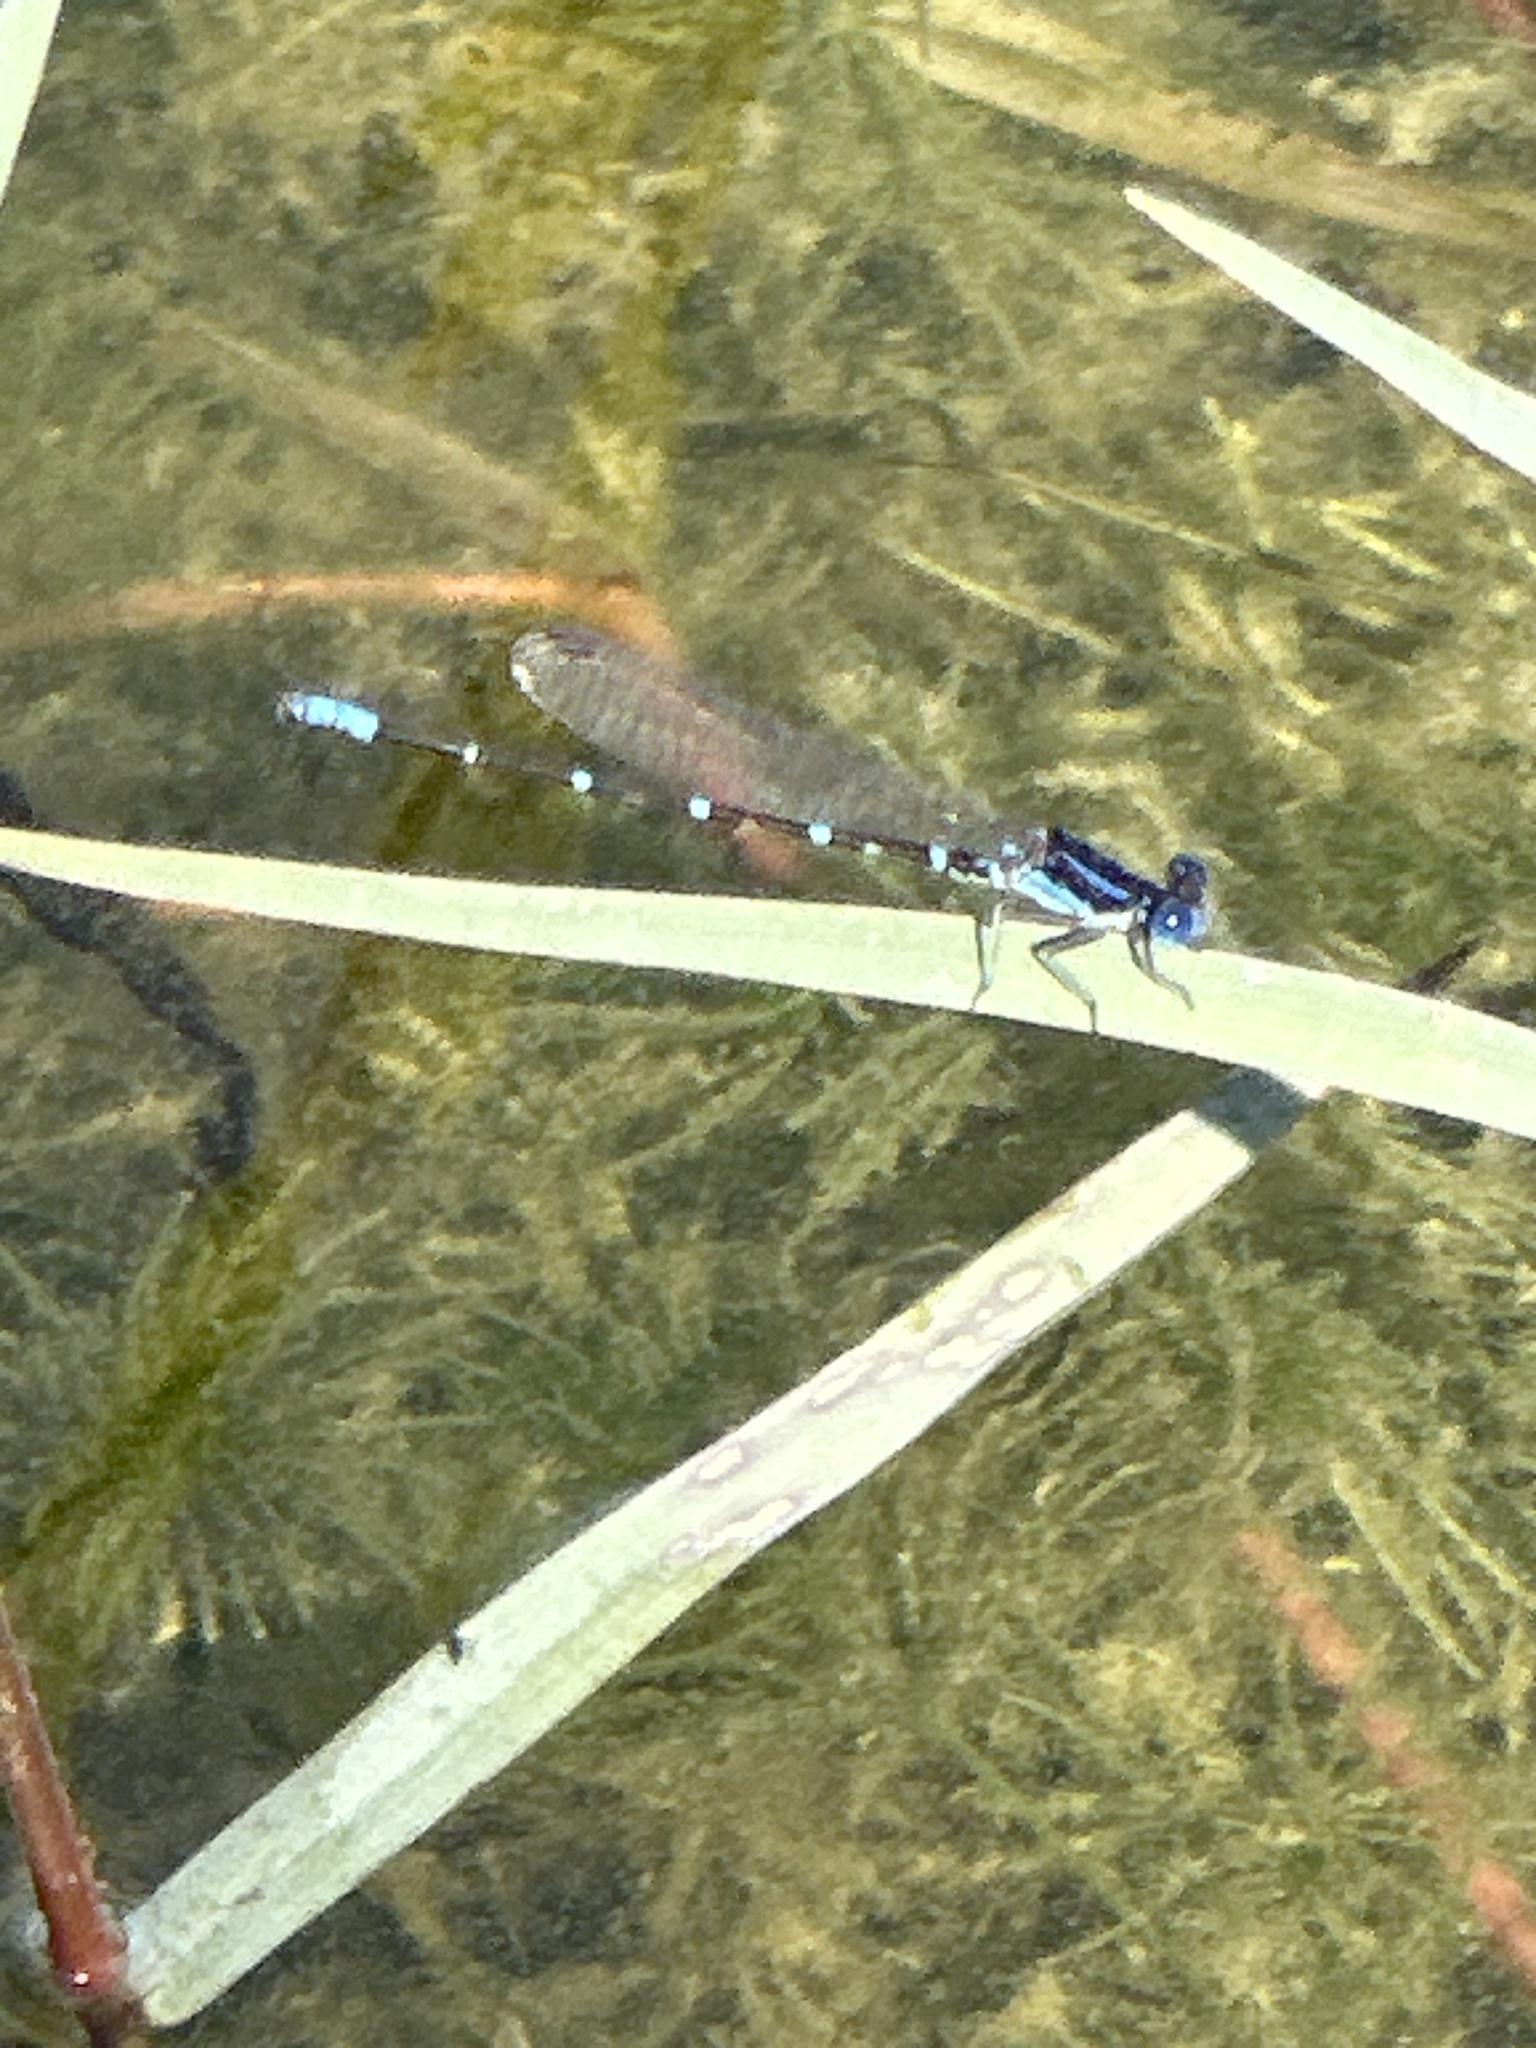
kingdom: Animalia
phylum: Arthropoda
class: Insecta
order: Odonata
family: Coenagrionidae
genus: Argia
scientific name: Argia sedula
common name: Blue-ringed dancer
